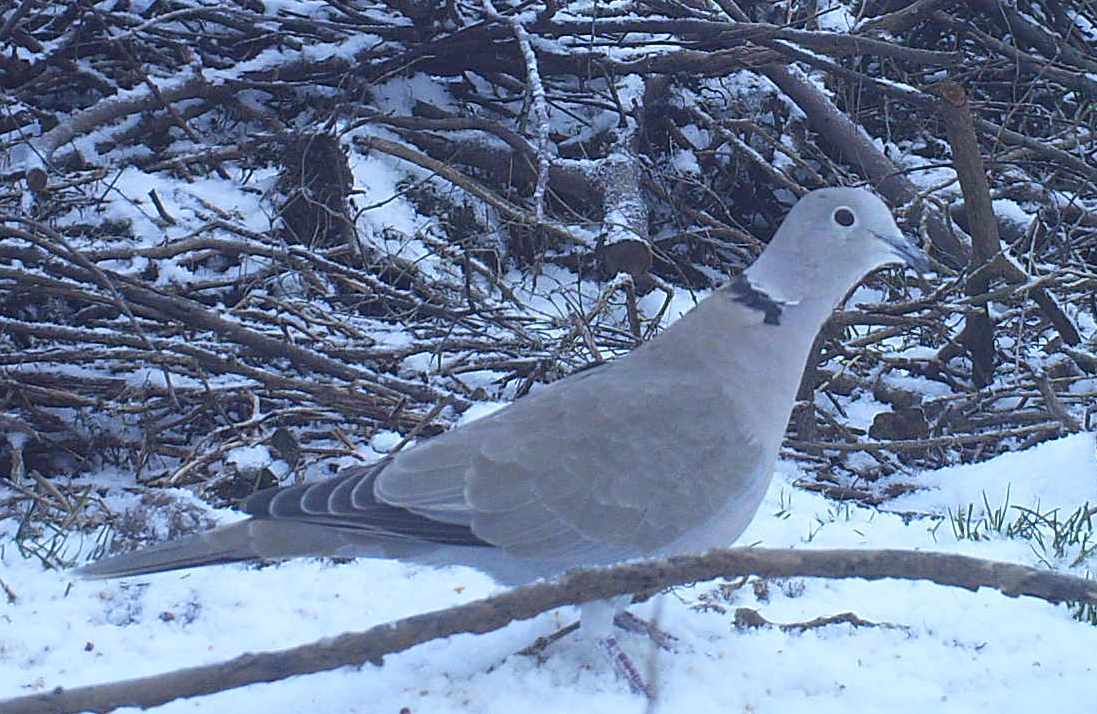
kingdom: Animalia
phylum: Chordata
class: Aves
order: Columbiformes
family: Columbidae
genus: Streptopelia
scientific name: Streptopelia decaocto
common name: Eurasian collared dove
